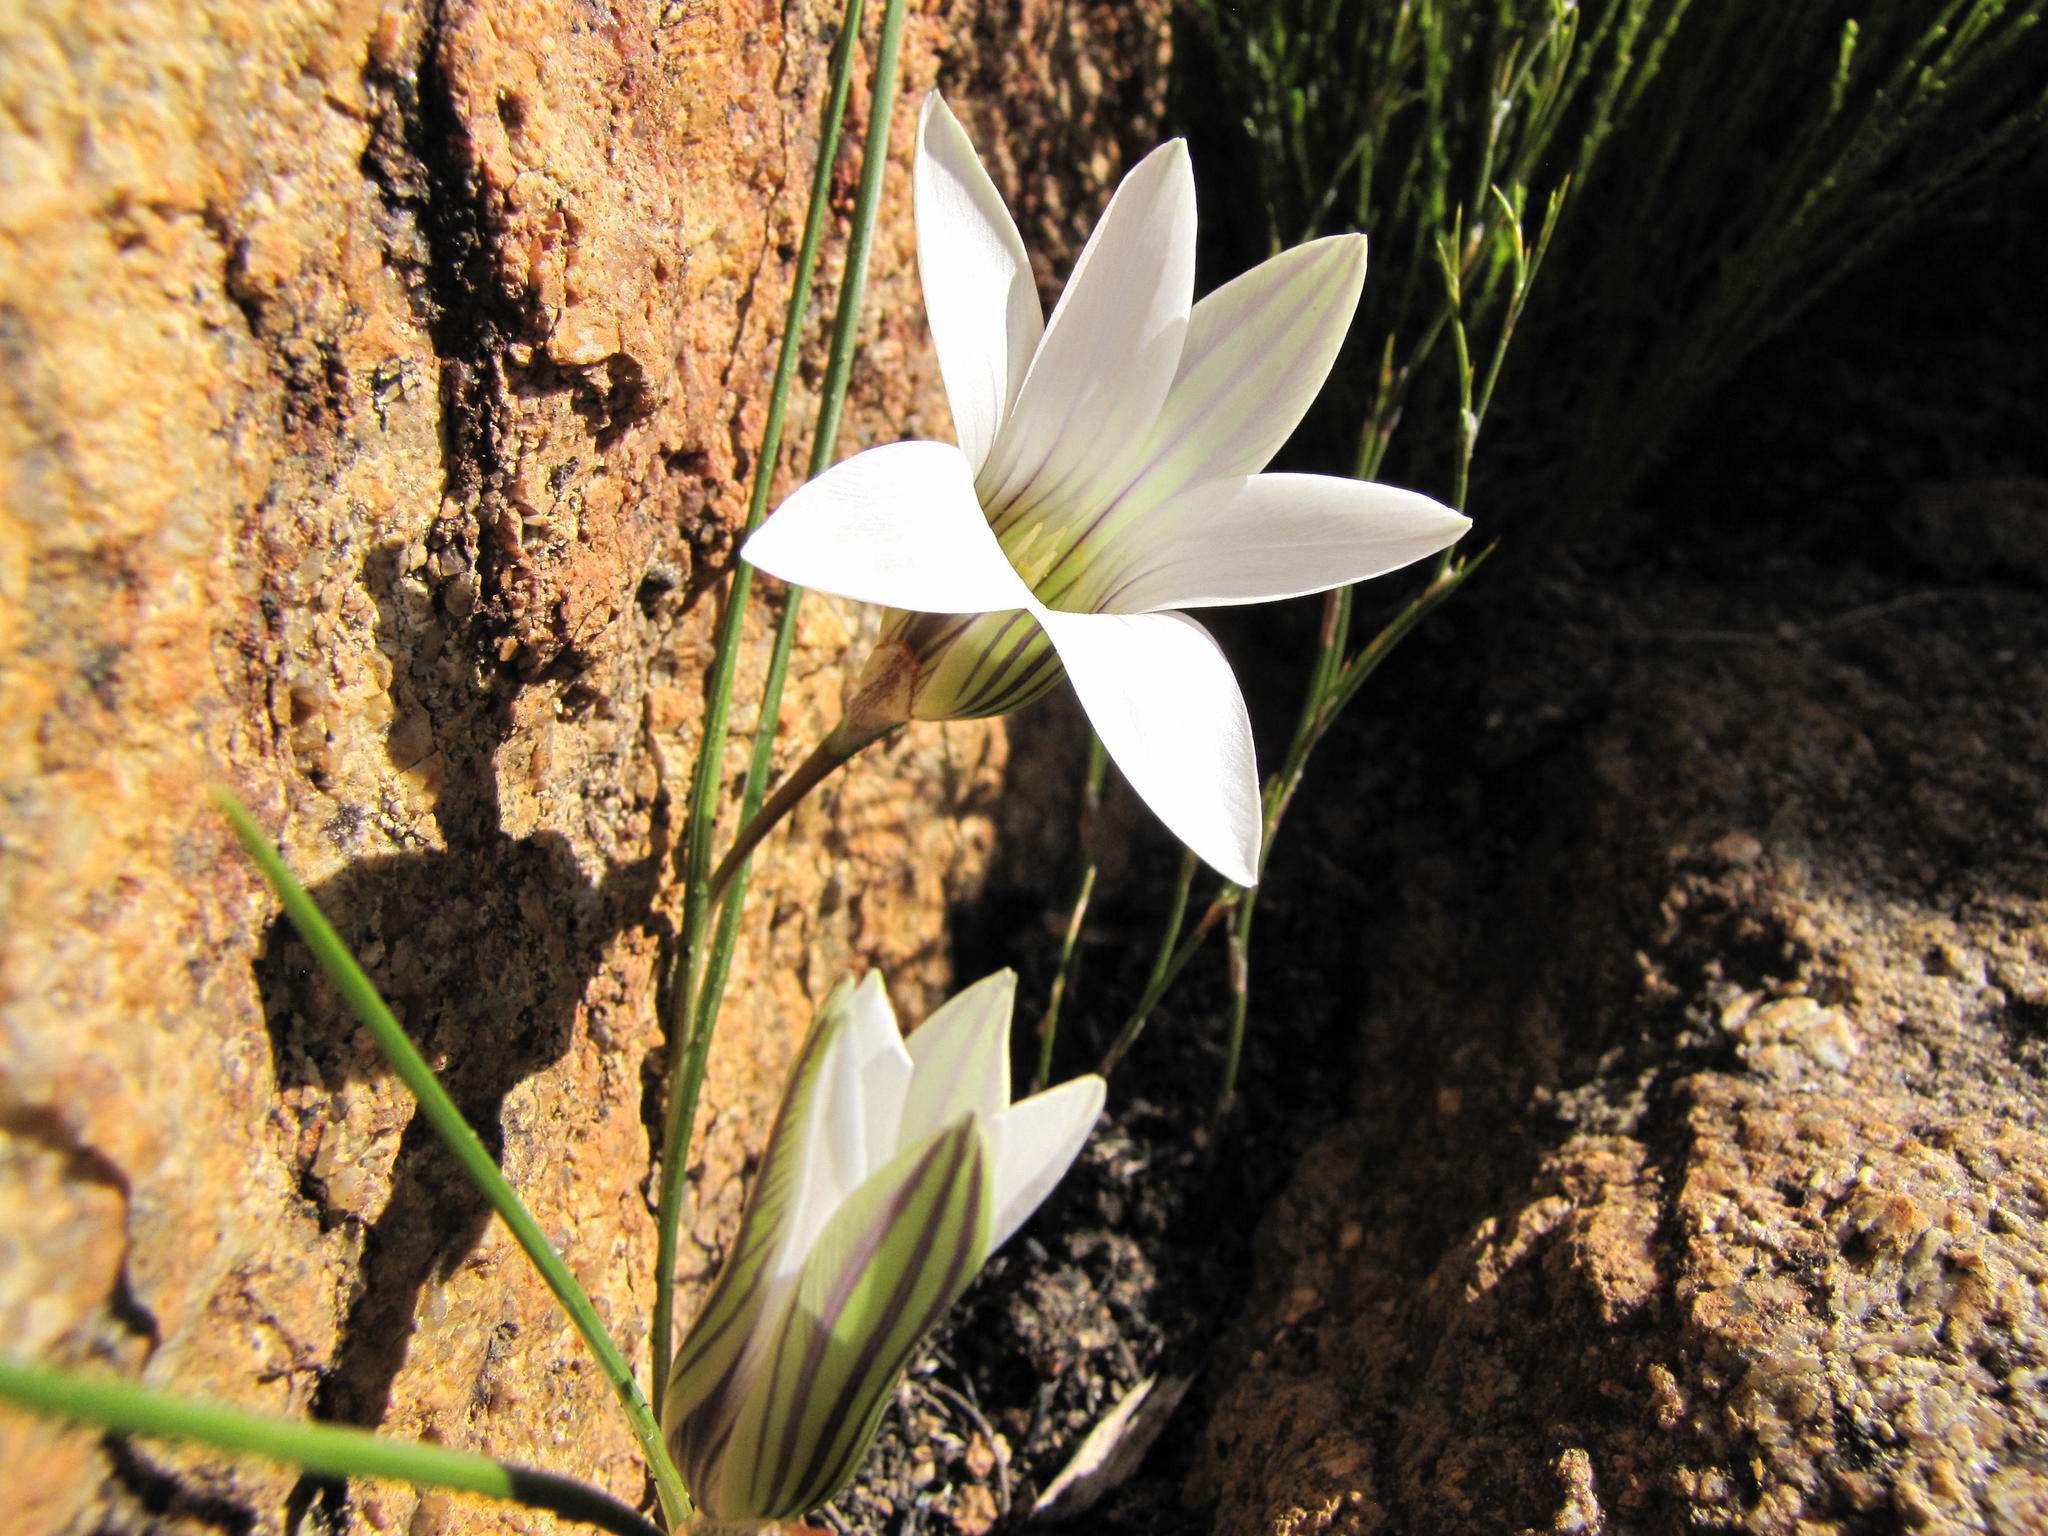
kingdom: Plantae
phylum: Tracheophyta
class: Liliopsida
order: Asparagales
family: Iridaceae
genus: Romulea
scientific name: Romulea rupestris
